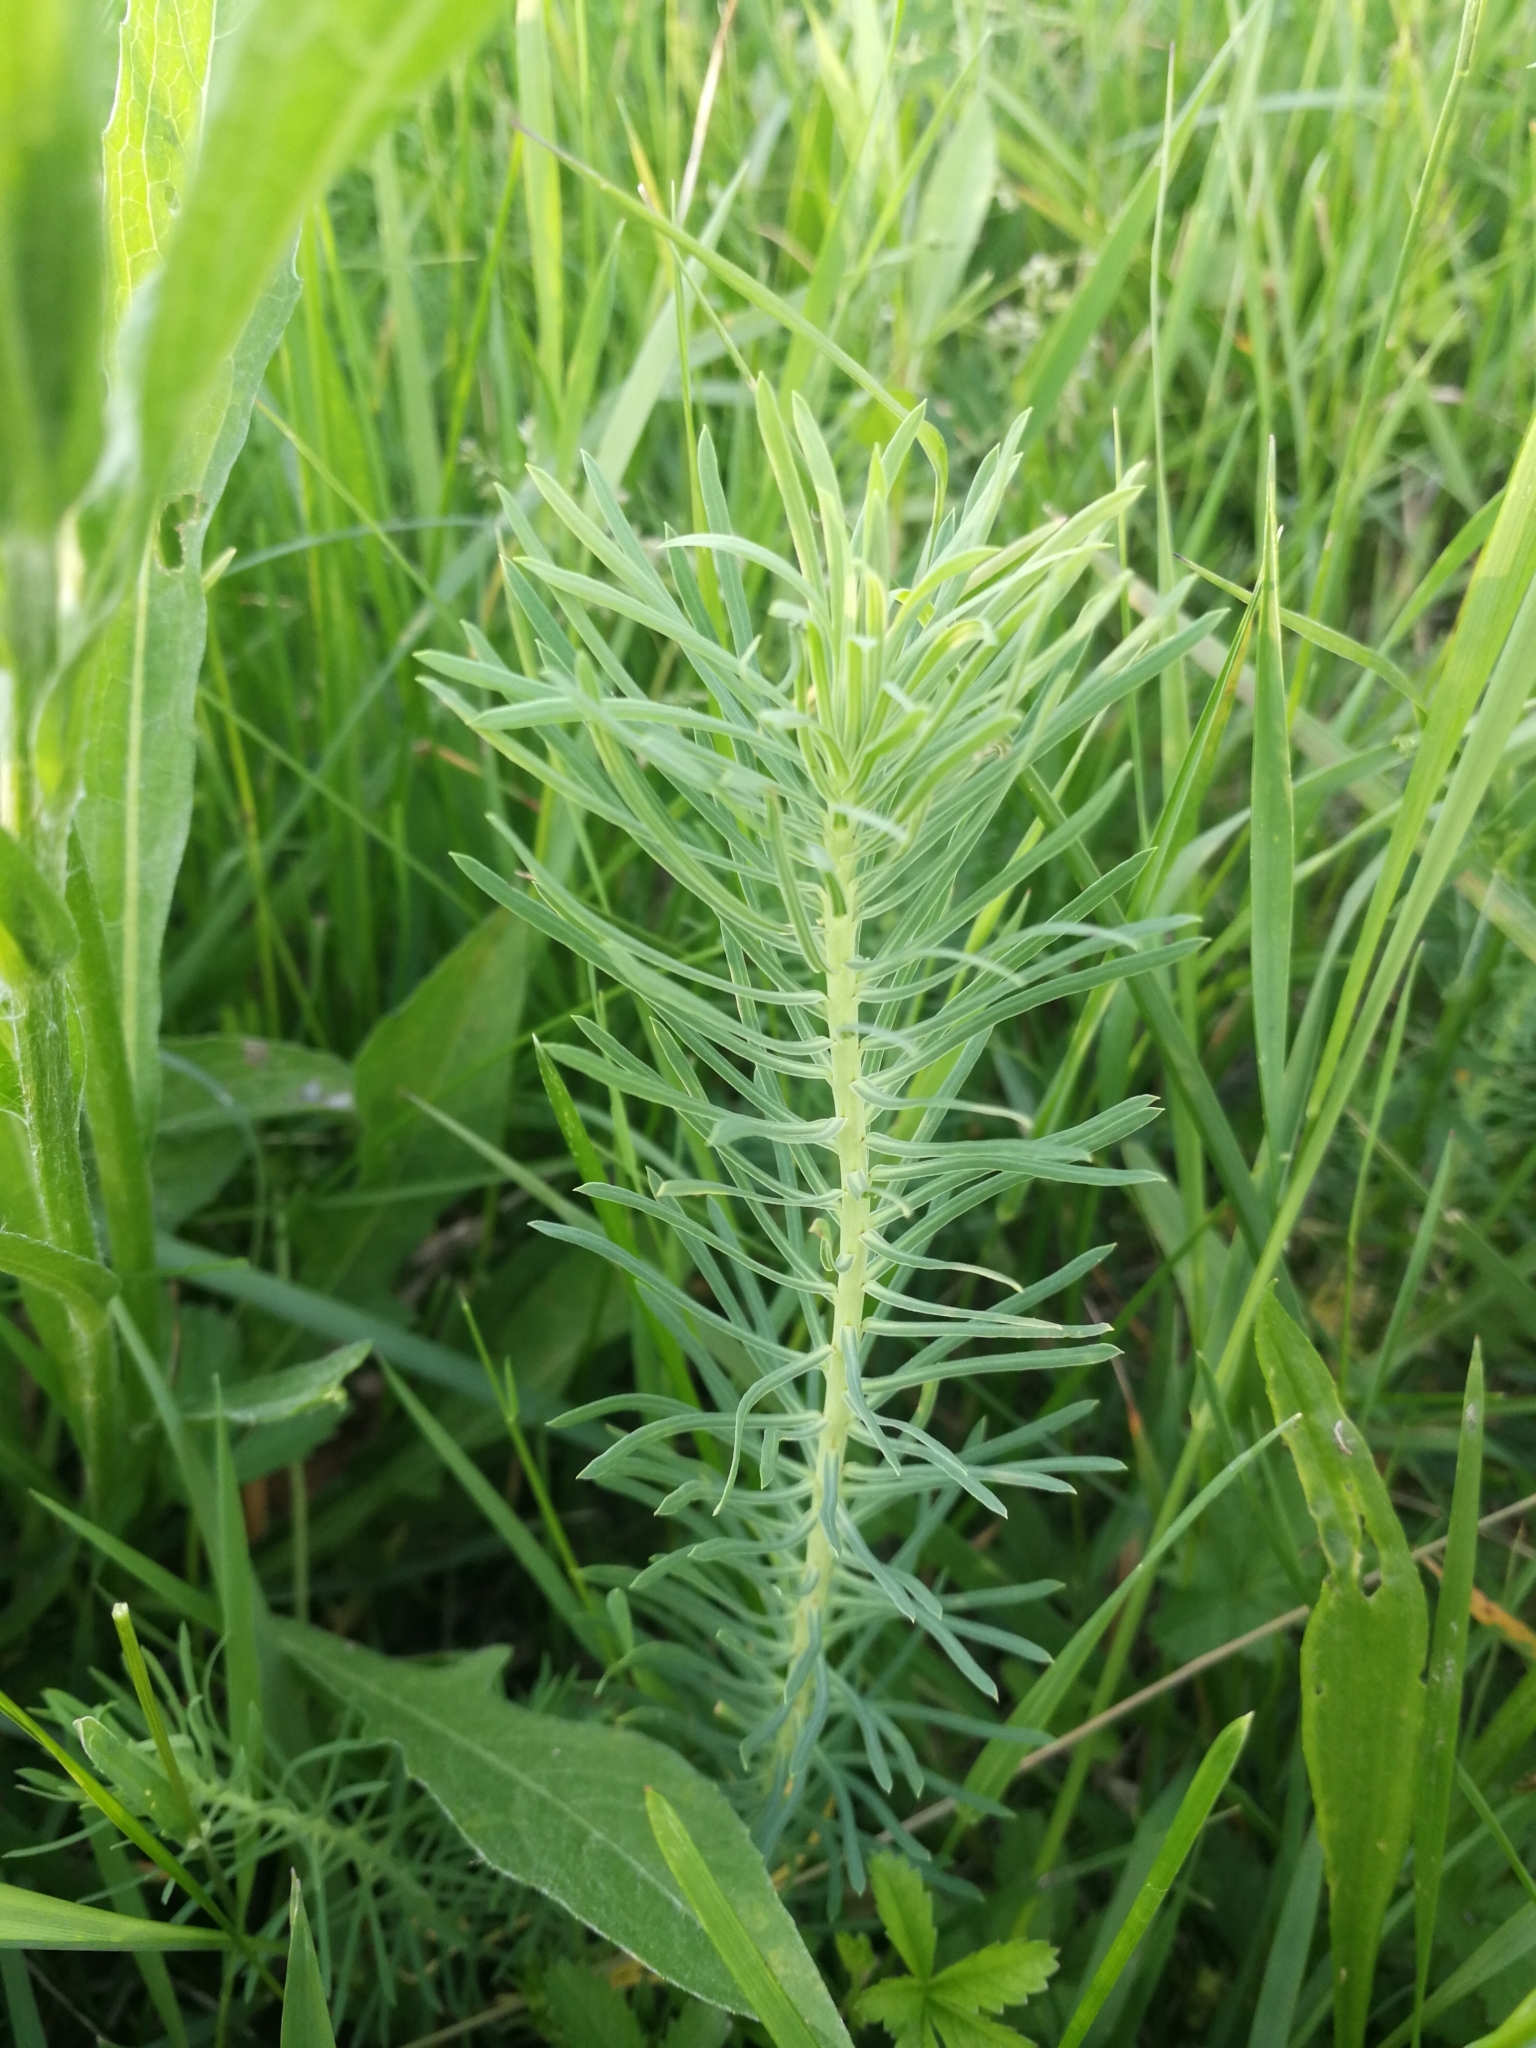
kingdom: Plantae
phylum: Tracheophyta
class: Magnoliopsida
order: Malpighiales
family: Euphorbiaceae
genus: Euphorbia
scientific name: Euphorbia cyparissias
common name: Cypress spurge
